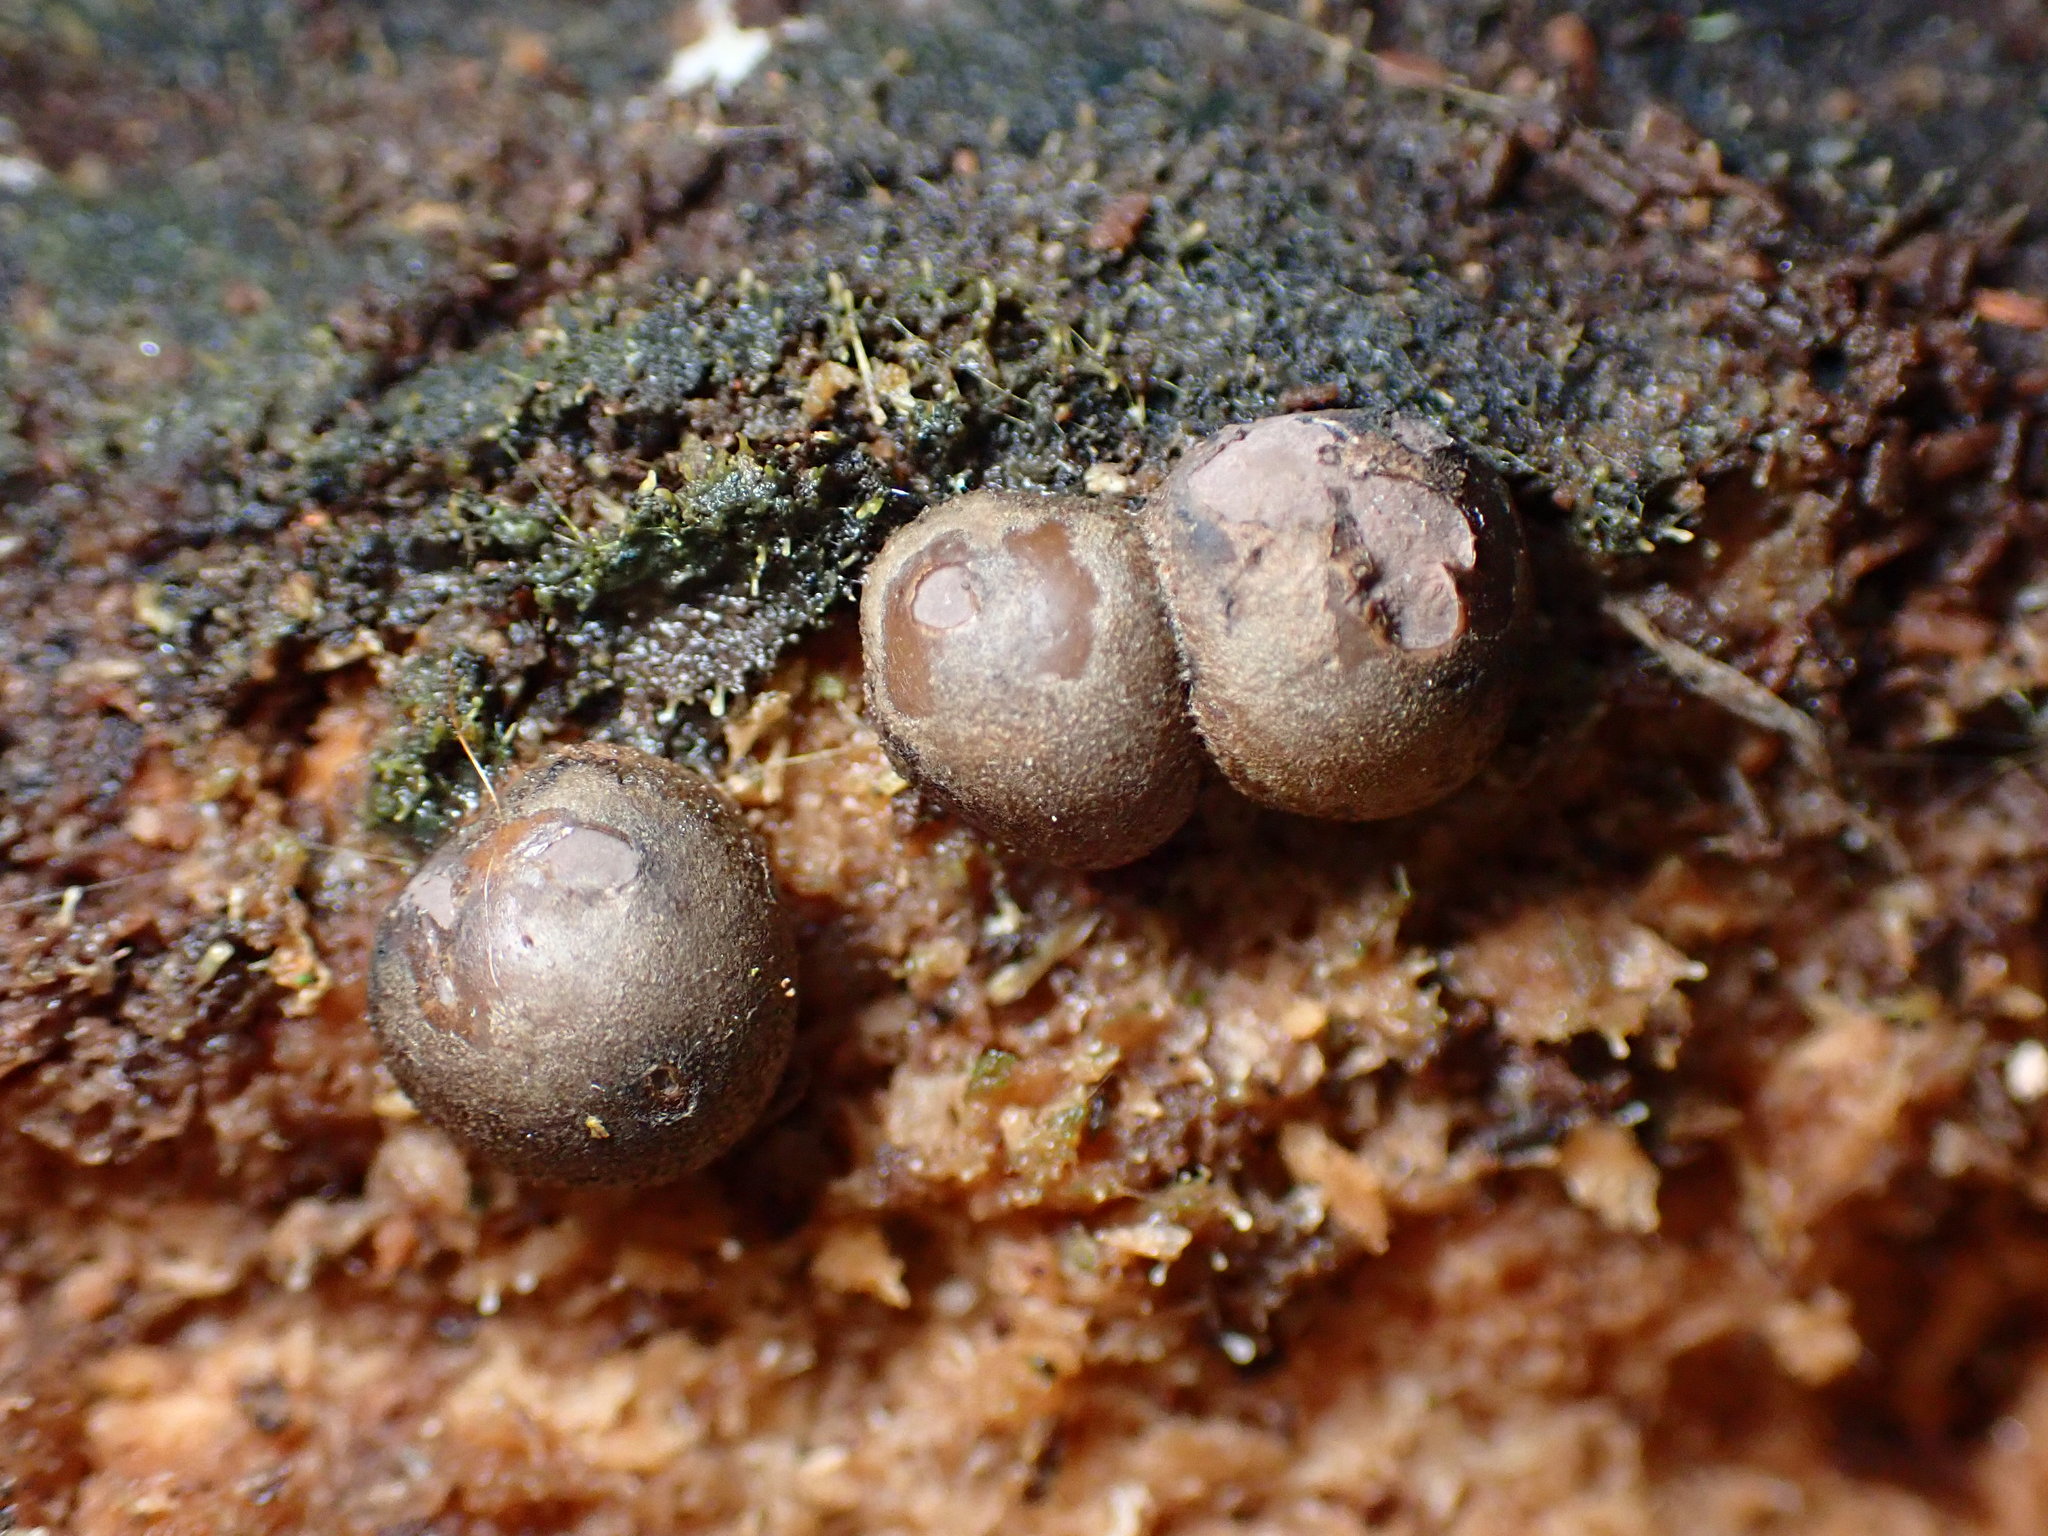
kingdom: Protozoa
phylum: Mycetozoa
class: Myxomycetes
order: Cribrariales
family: Tubiferaceae
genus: Lycogala
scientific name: Lycogala epidendrum
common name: Wolf's milk
